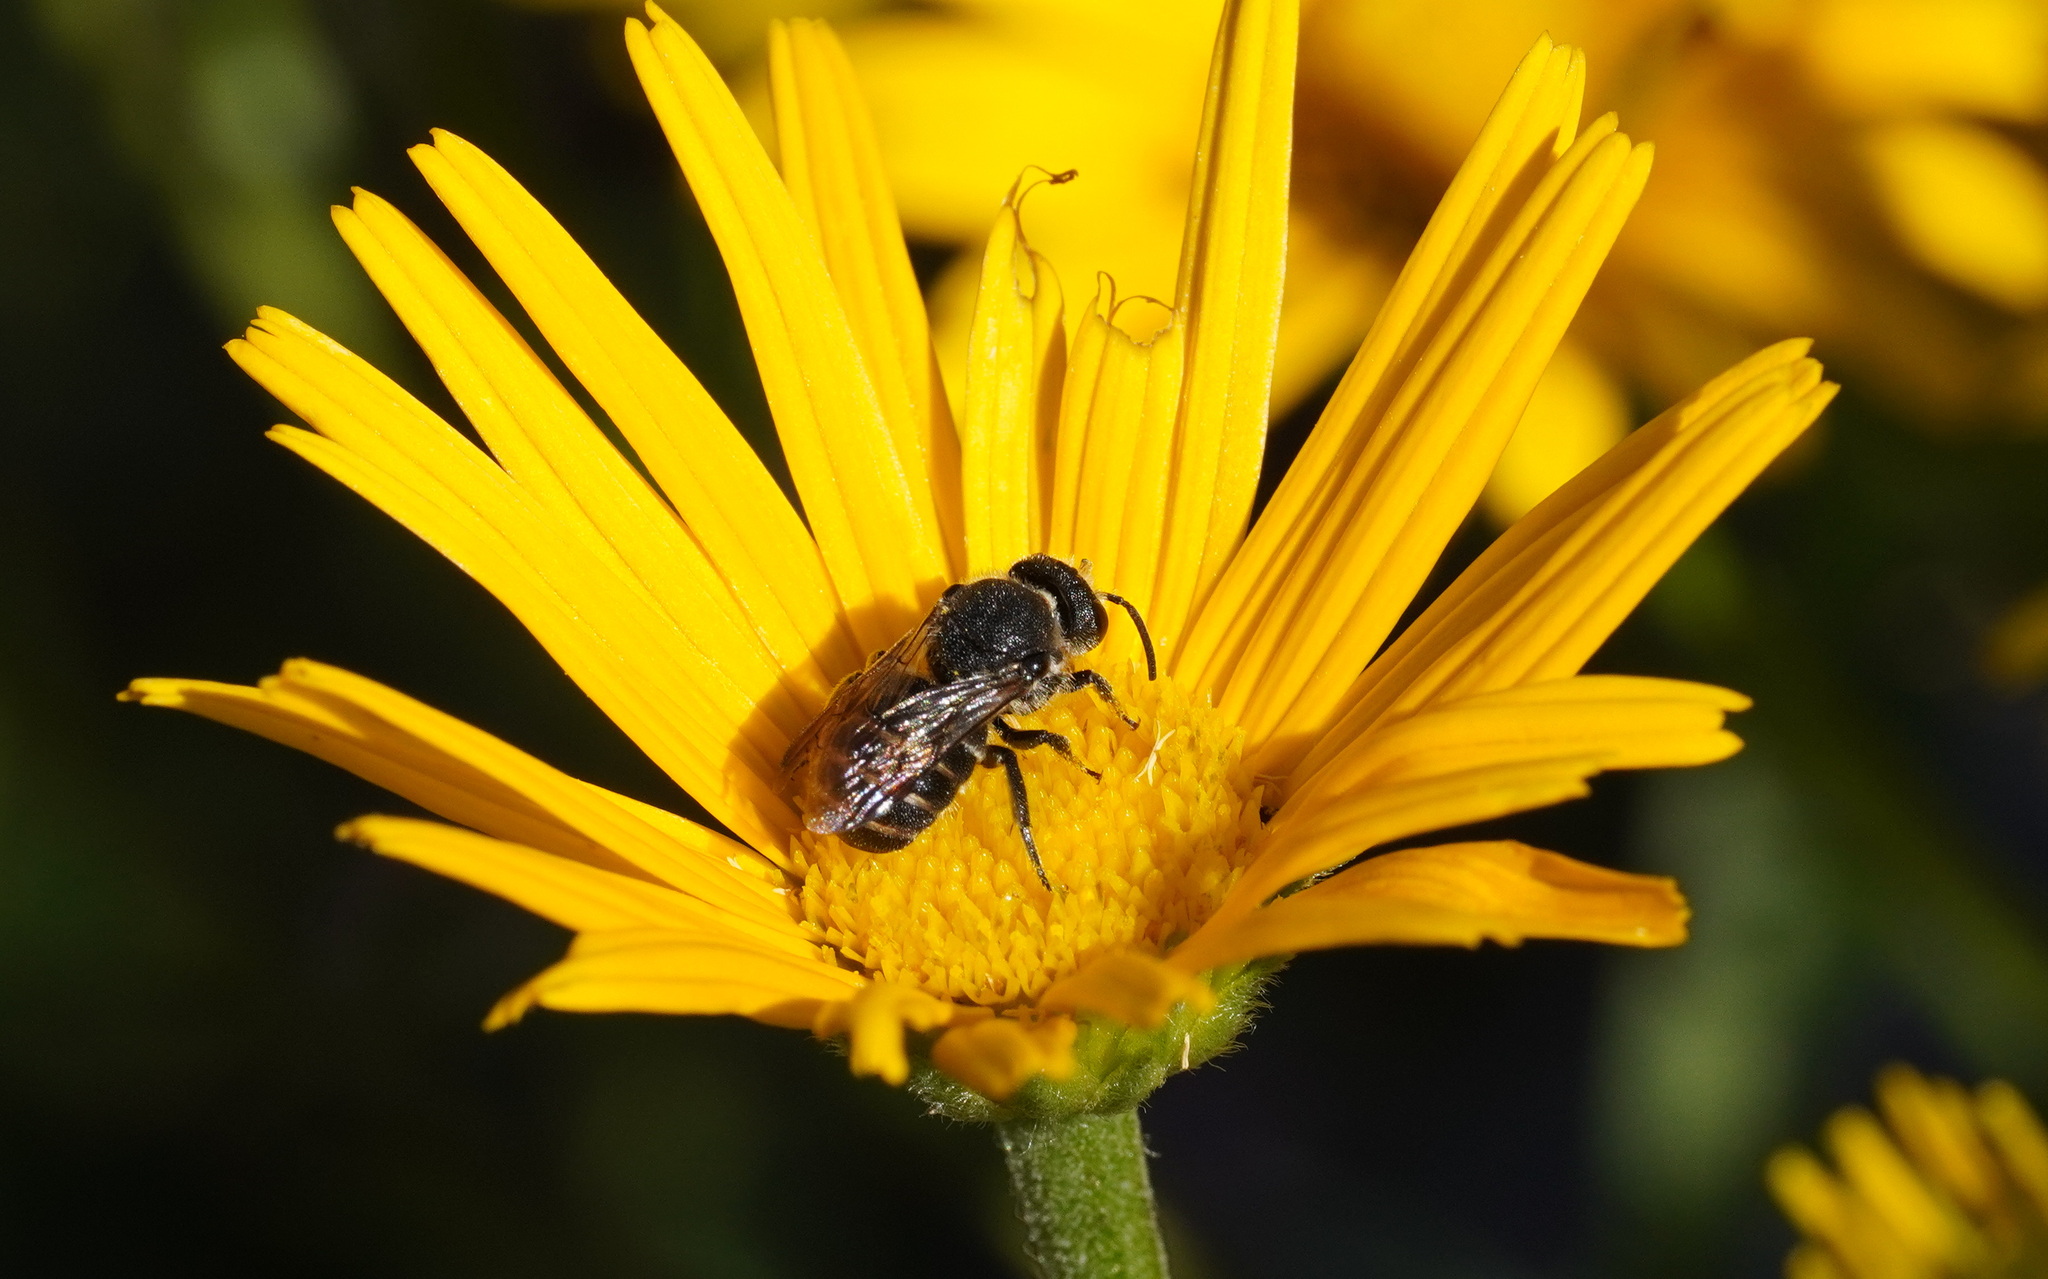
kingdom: Animalia
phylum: Arthropoda
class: Insecta
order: Hymenoptera
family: Megachilidae
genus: Stelis
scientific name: Stelis punctulatissima
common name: Banded dark bee
